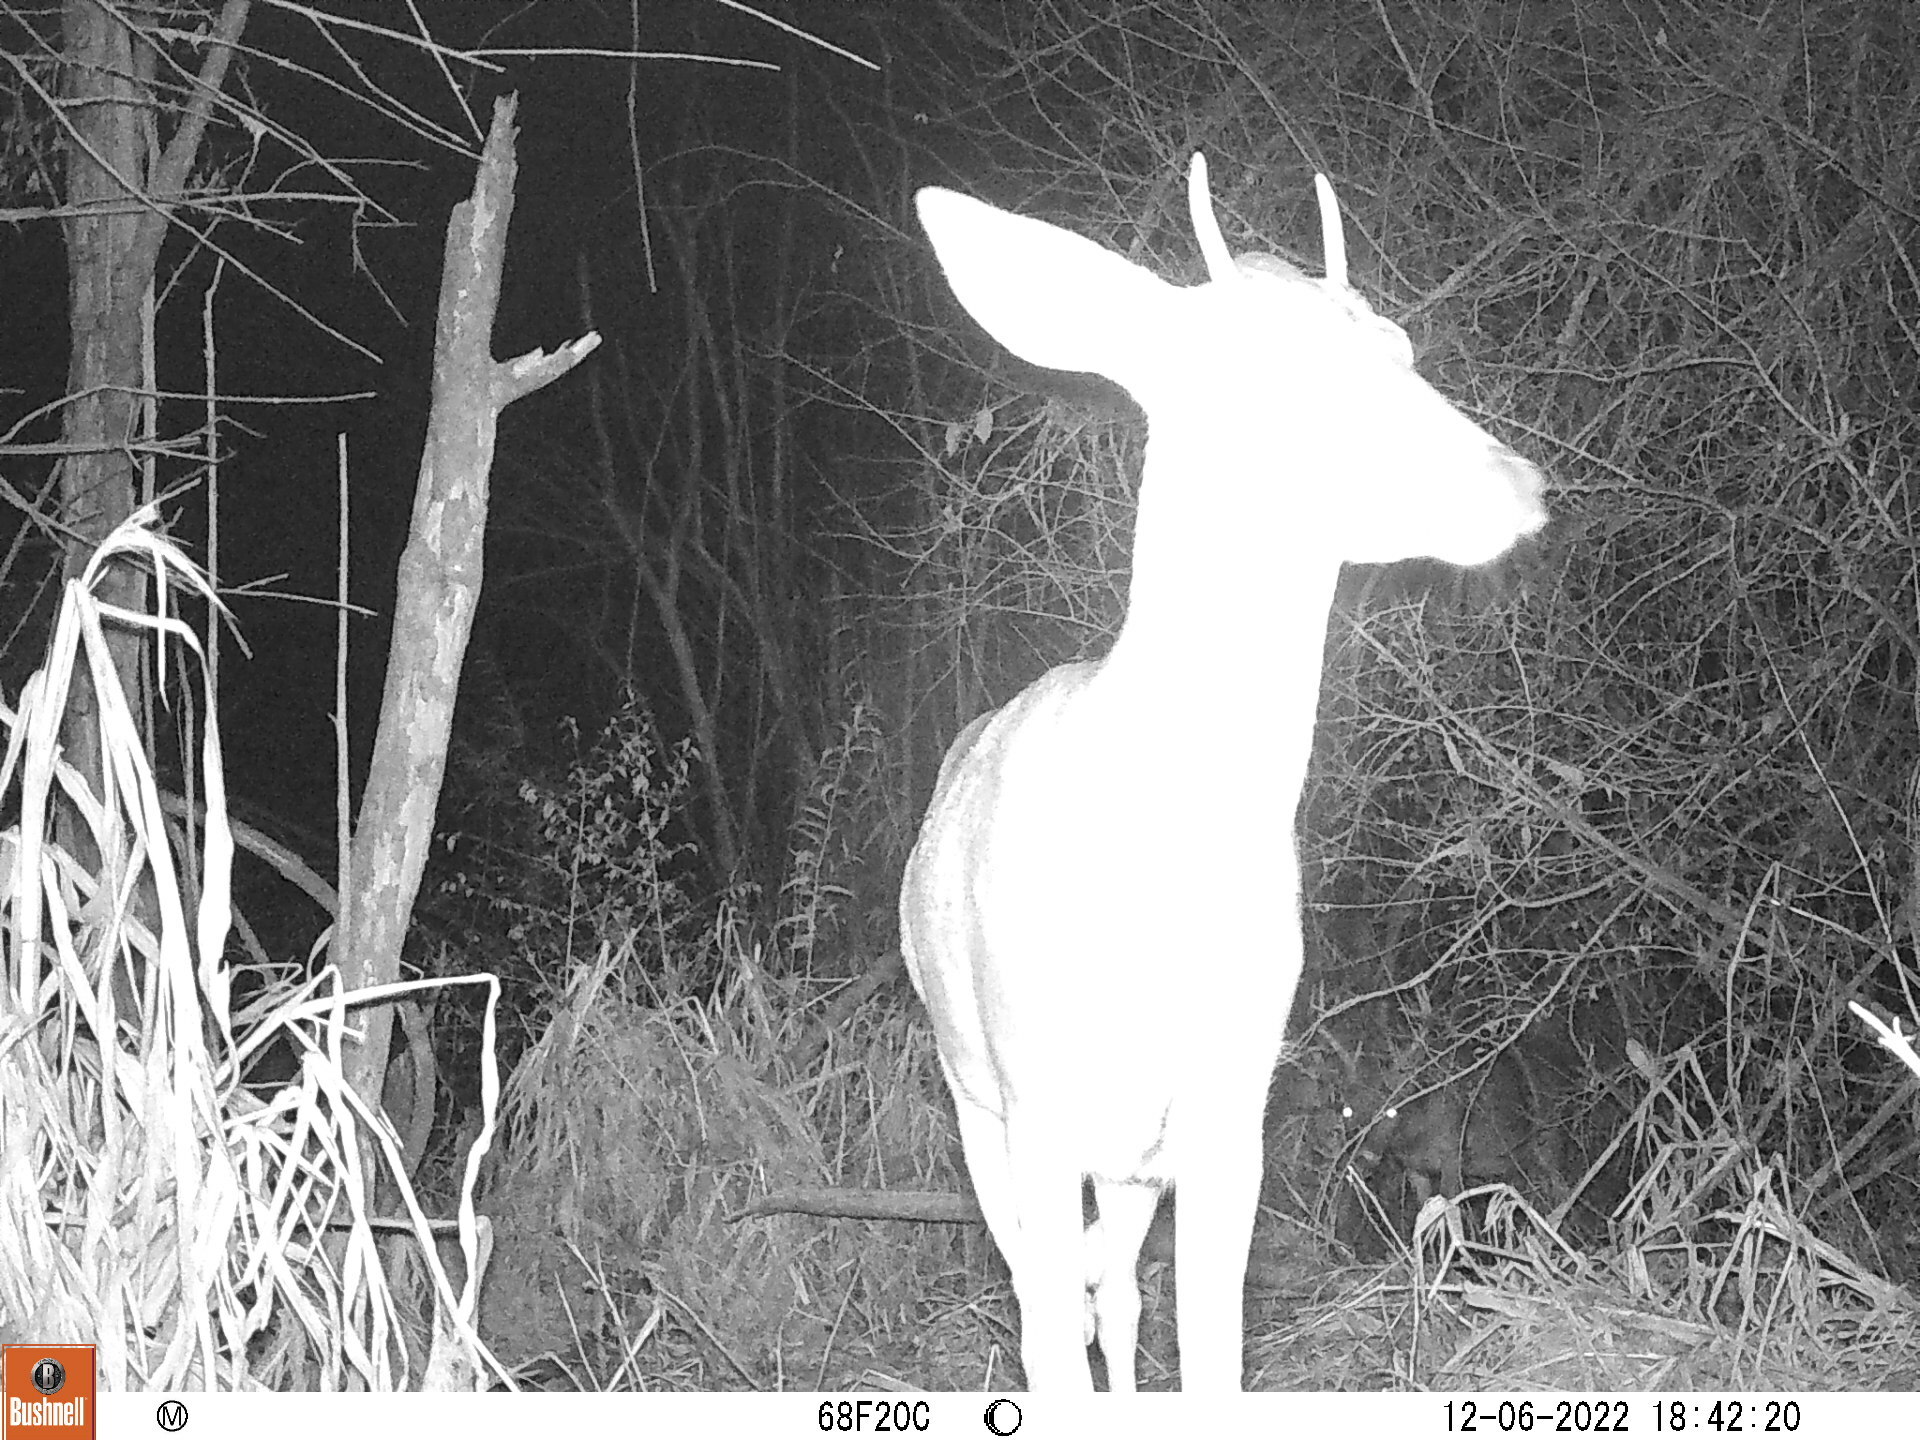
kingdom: Animalia
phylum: Chordata
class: Mammalia
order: Artiodactyla
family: Cervidae
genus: Odocoileus
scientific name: Odocoileus virginianus
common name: White-tailed deer
